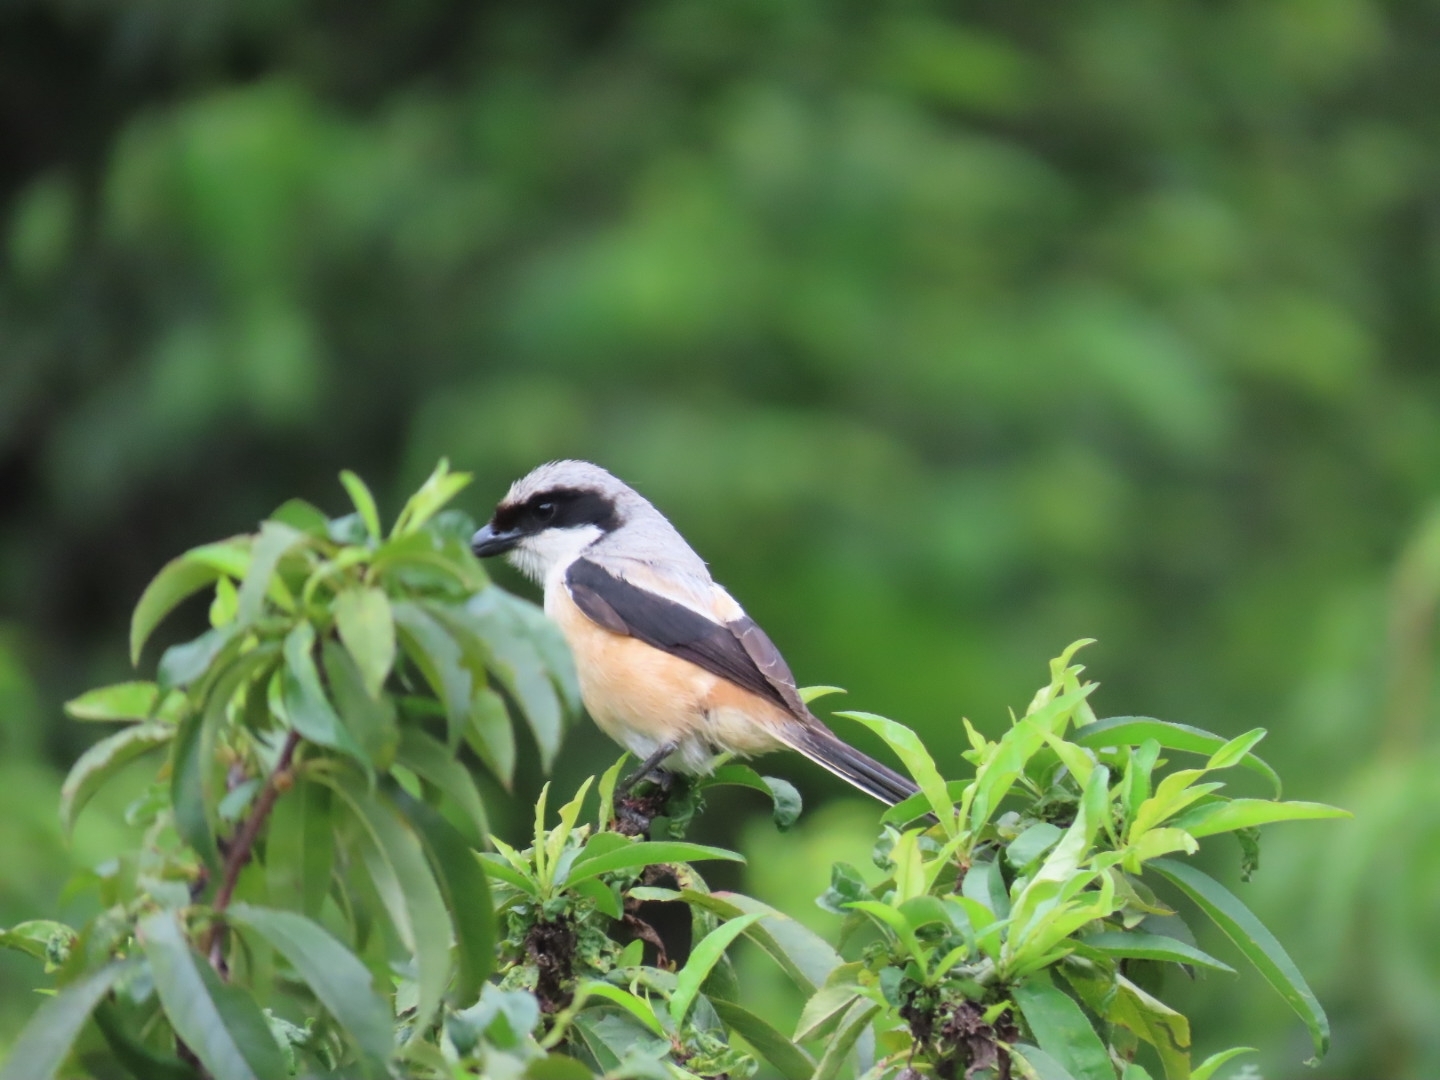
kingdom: Animalia
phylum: Chordata
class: Aves
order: Passeriformes
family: Laniidae
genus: Lanius
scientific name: Lanius schach
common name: Long-tailed shrike
